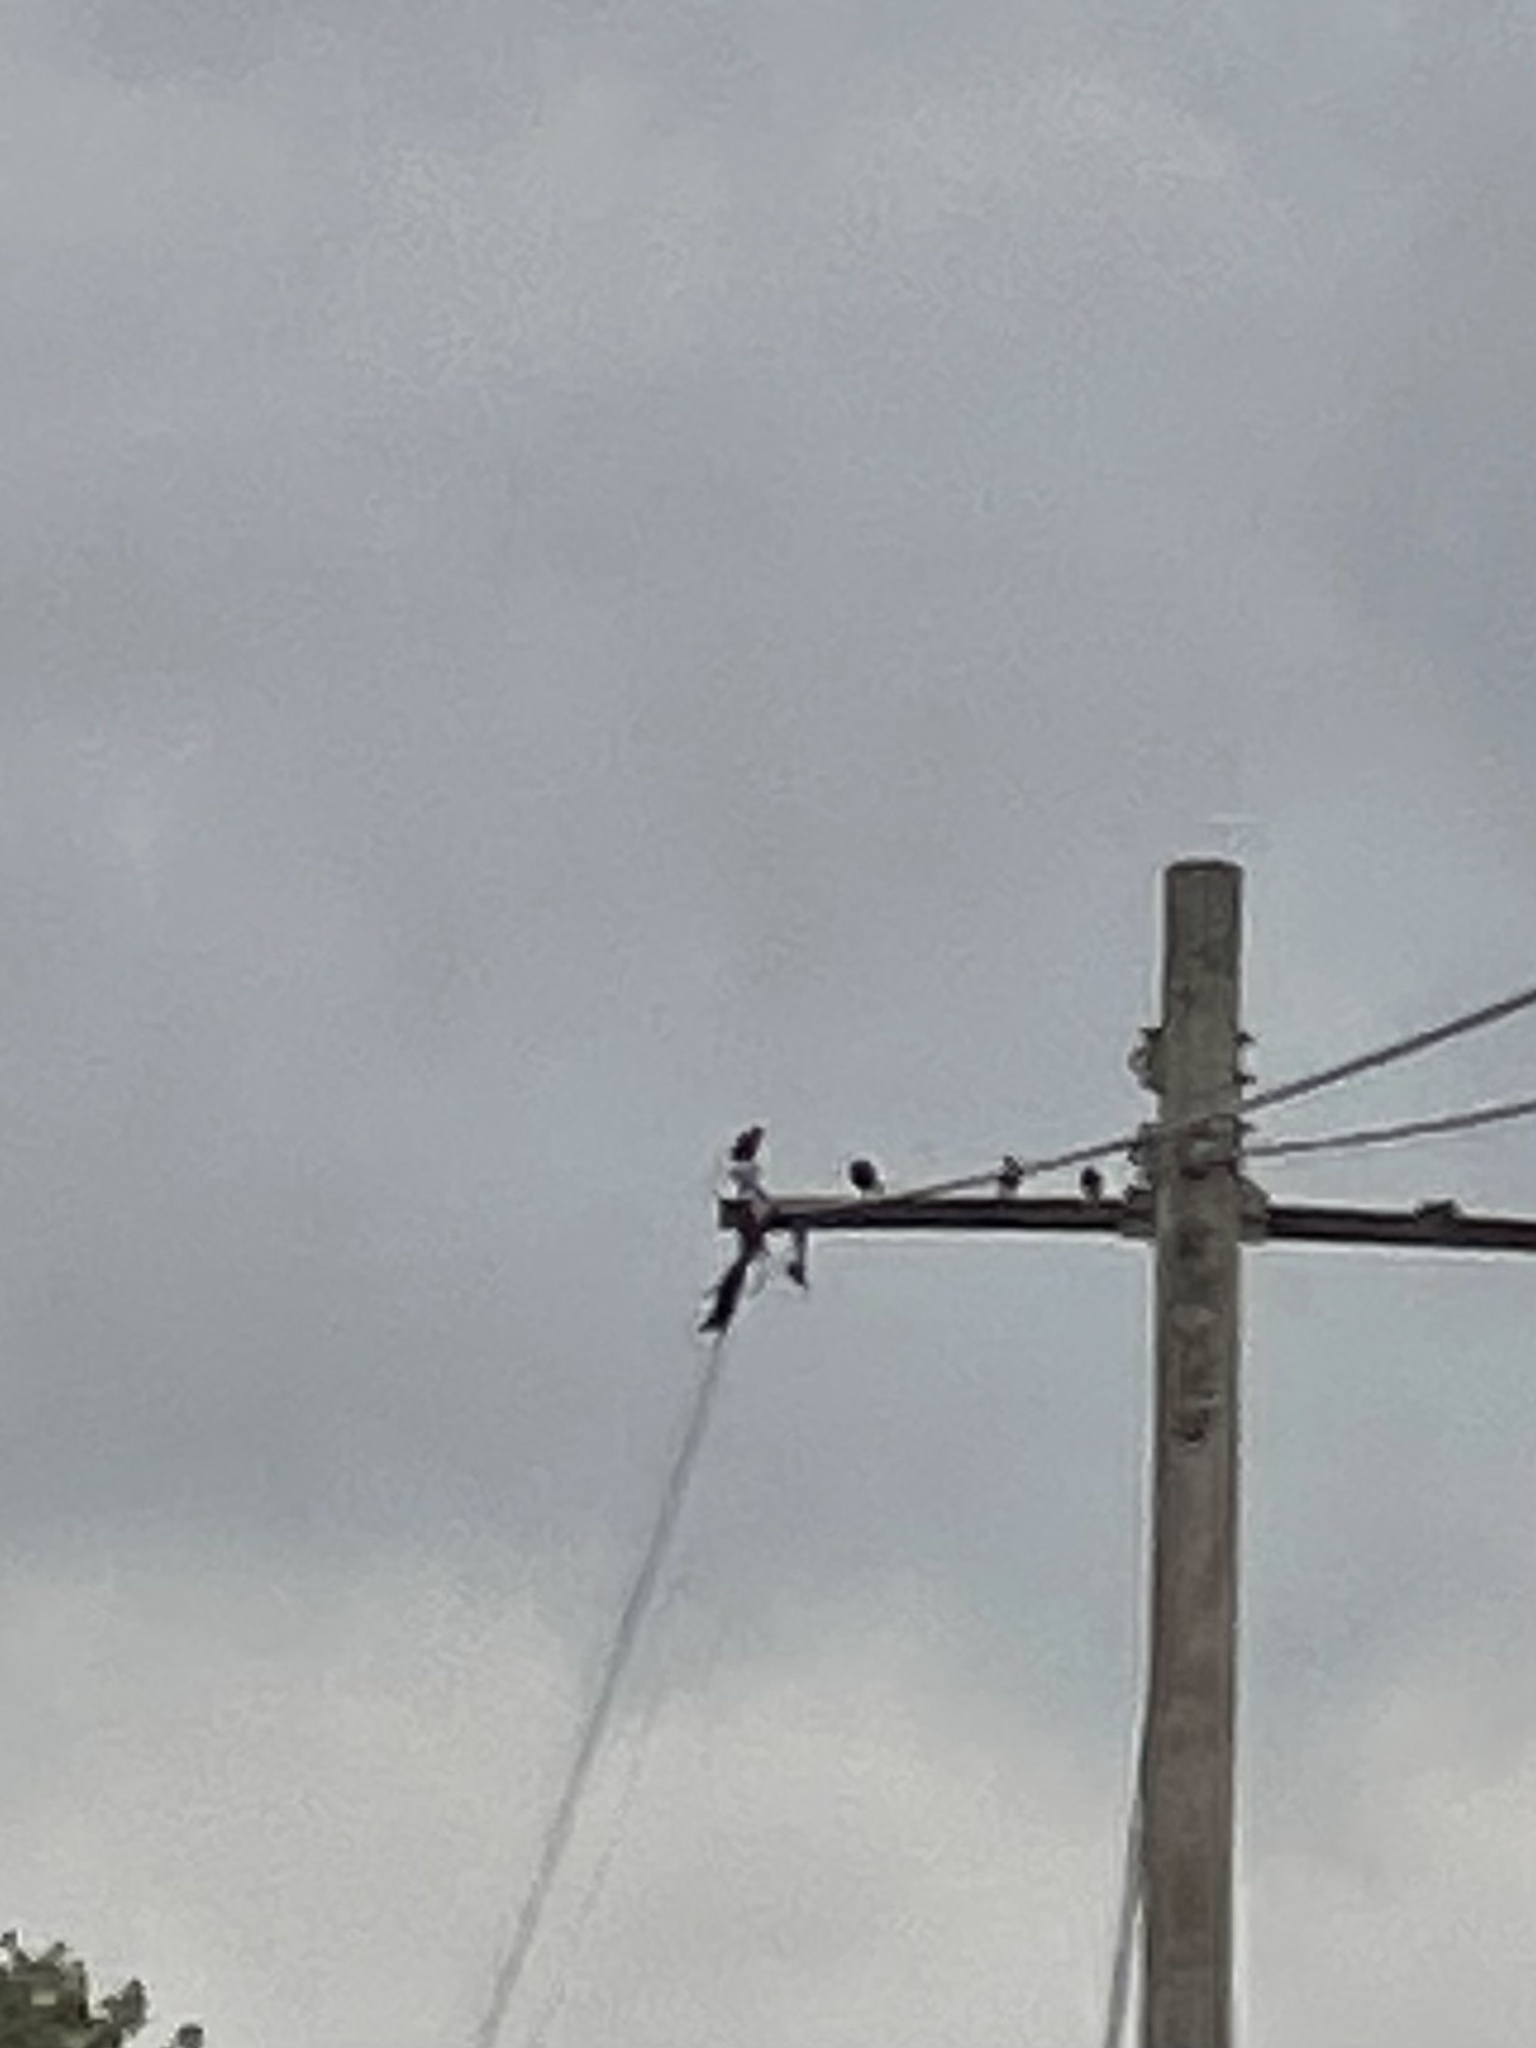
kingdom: Animalia
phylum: Chordata
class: Aves
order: Passeriformes
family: Sturnidae
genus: Sturnus
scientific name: Sturnus vulgaris
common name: Common starling
